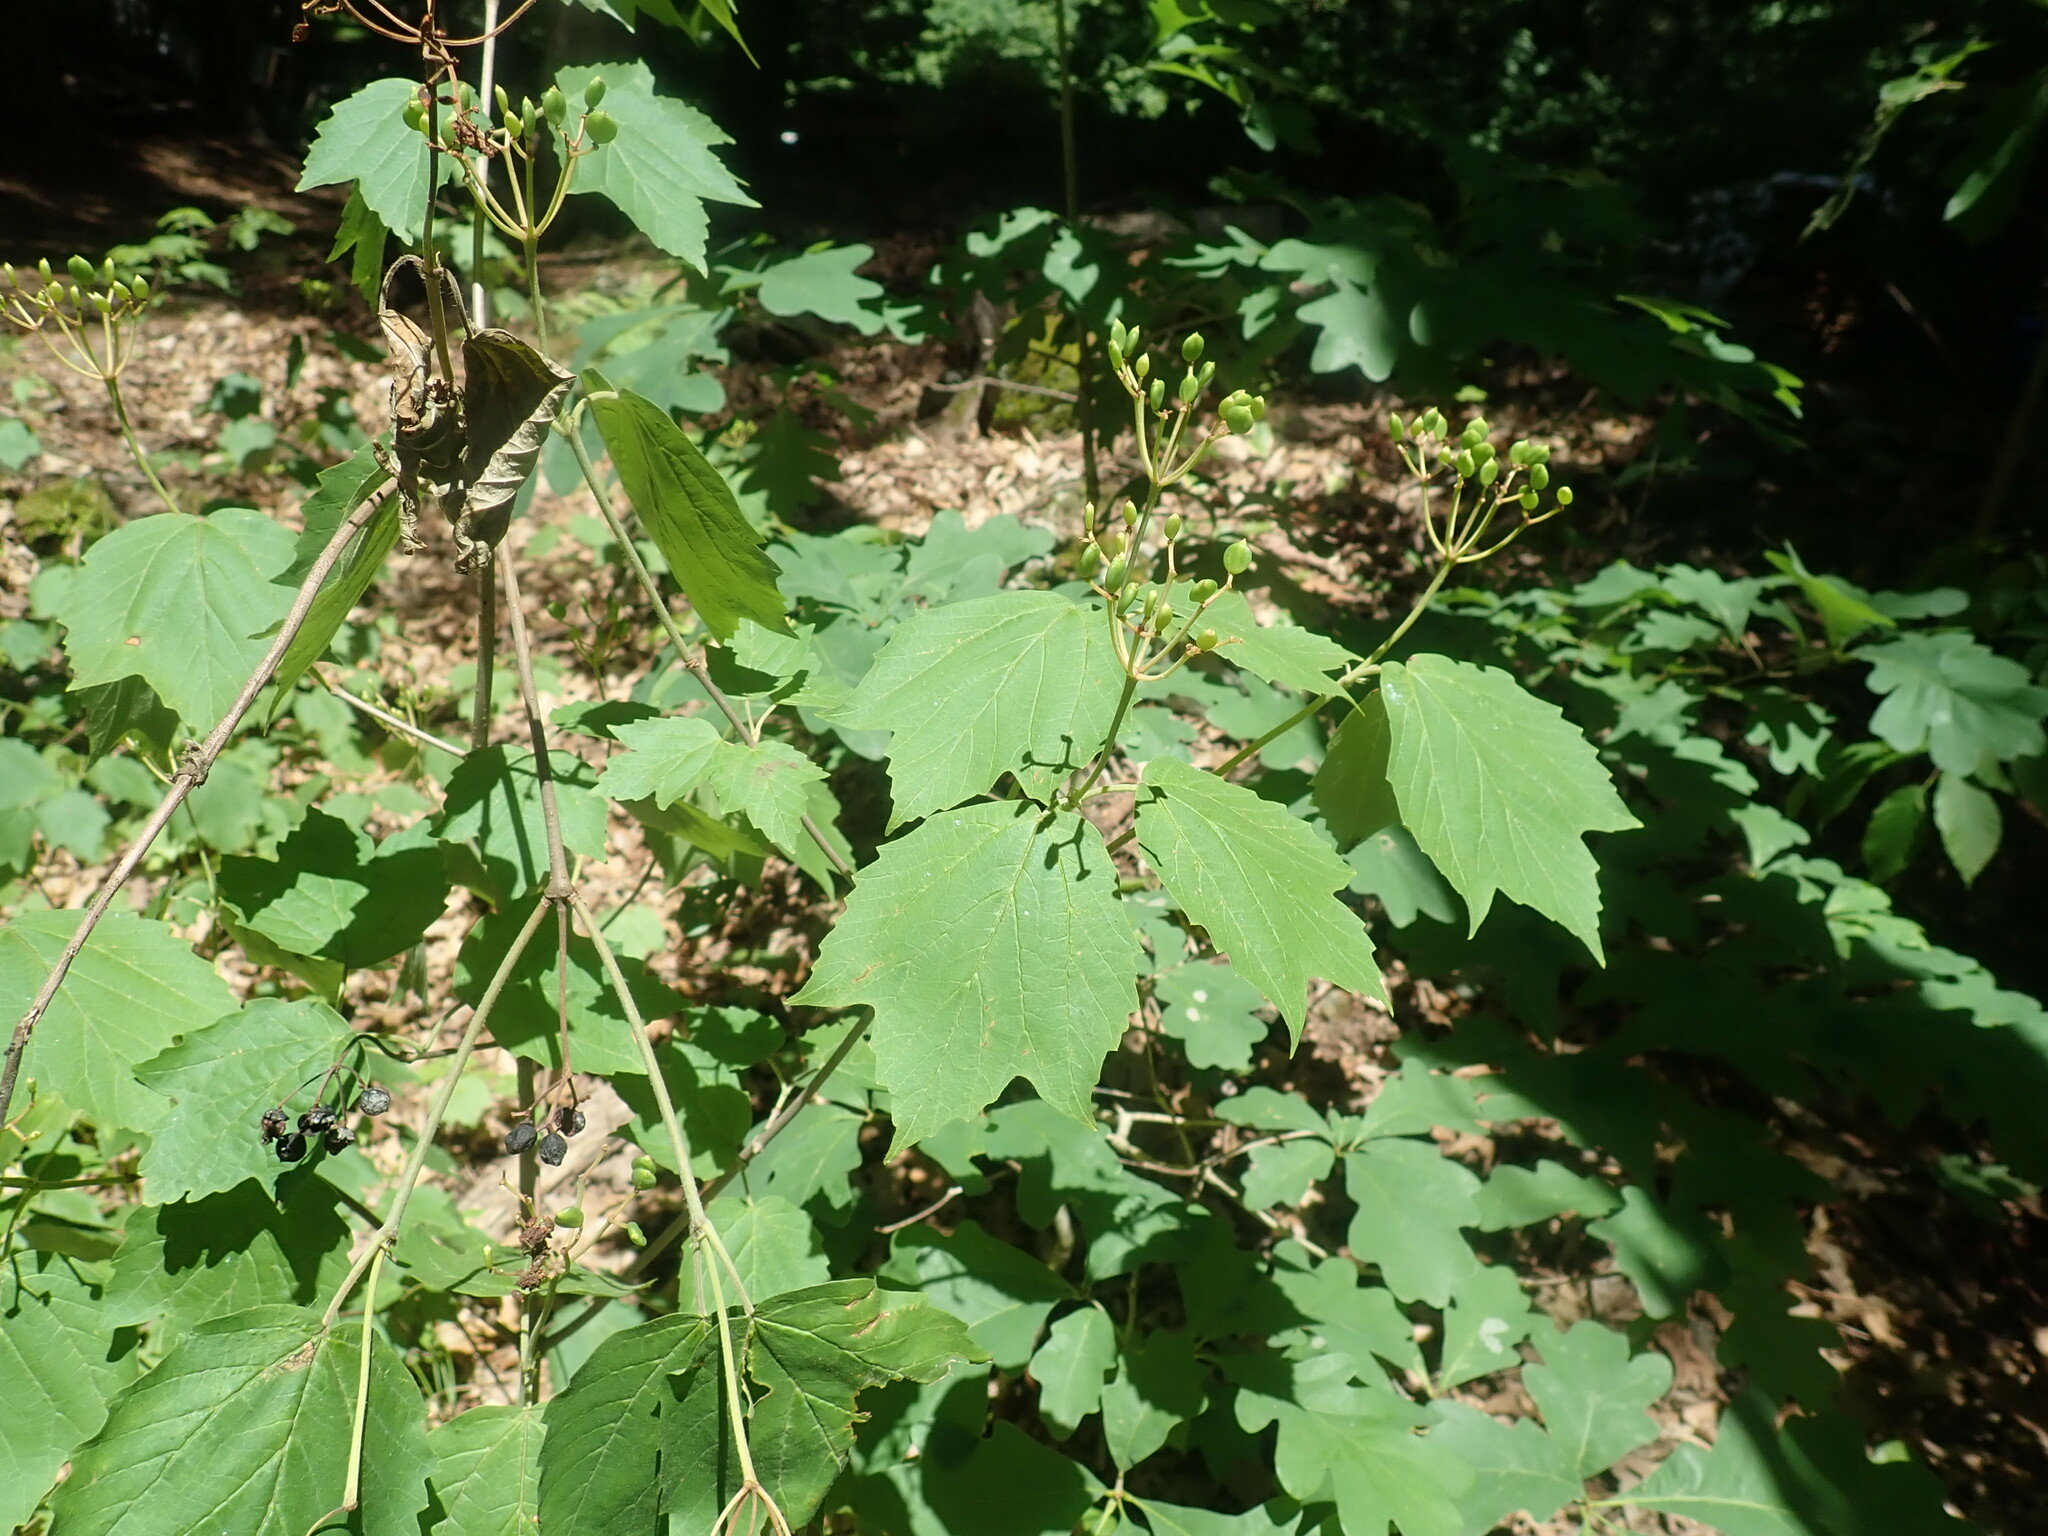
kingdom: Plantae
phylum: Tracheophyta
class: Magnoliopsida
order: Dipsacales
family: Viburnaceae
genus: Viburnum
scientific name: Viburnum acerifolium
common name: Dockmackie
